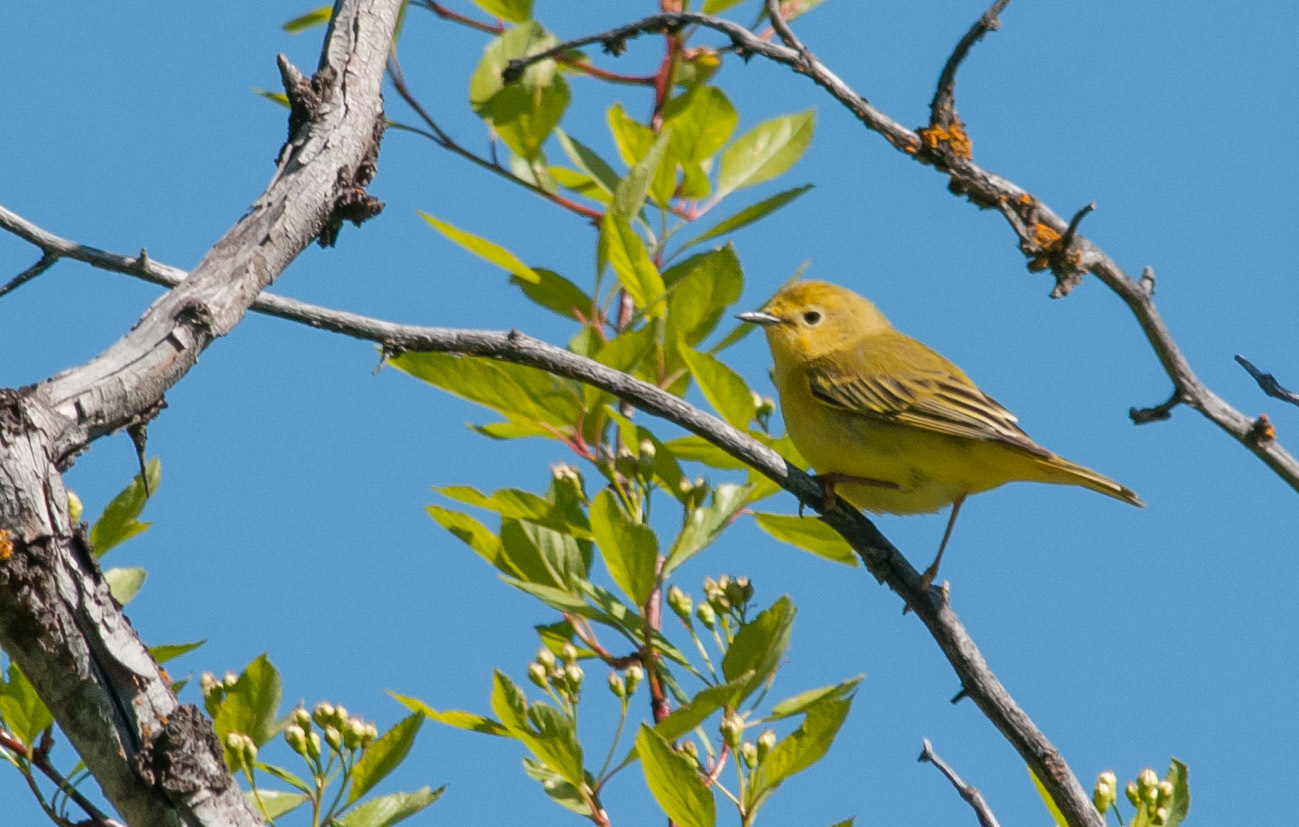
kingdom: Animalia
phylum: Chordata
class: Aves
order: Passeriformes
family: Parulidae
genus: Setophaga
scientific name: Setophaga petechia
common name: Yellow warbler
